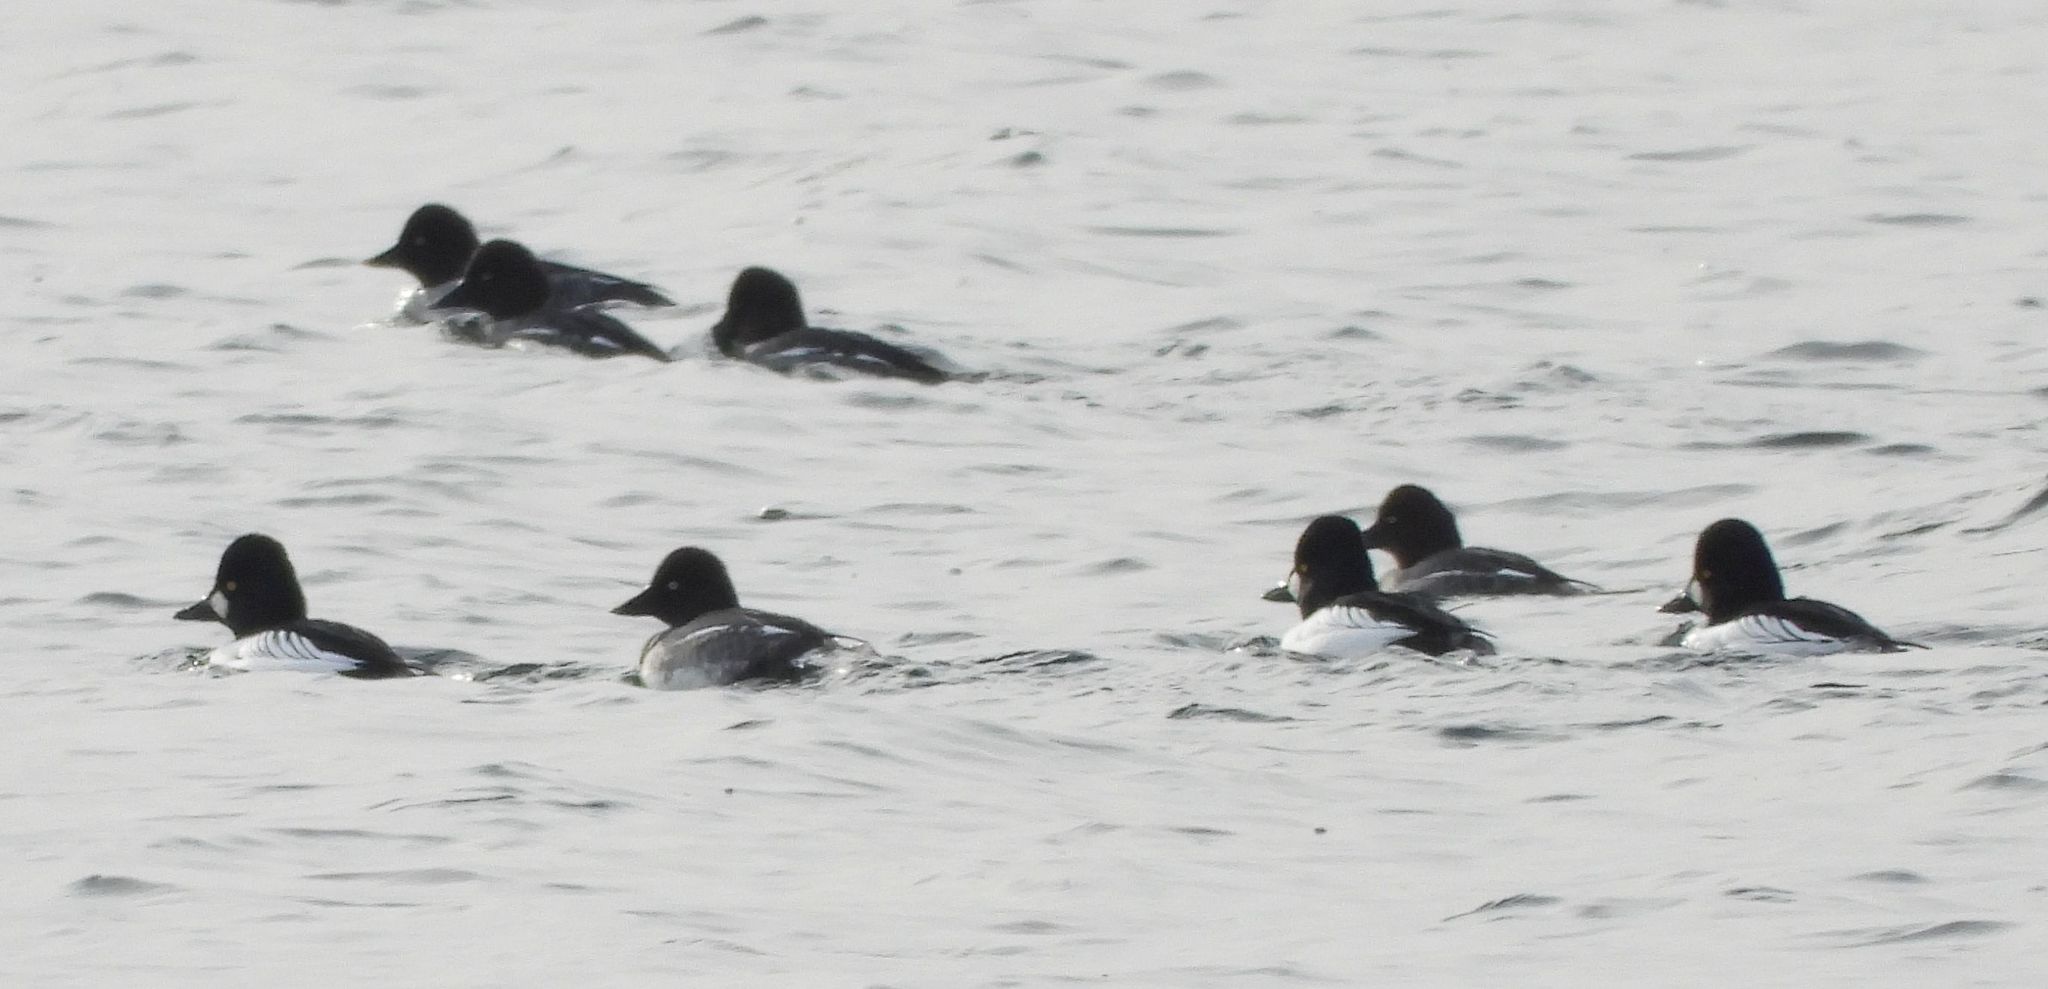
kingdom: Animalia
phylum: Chordata
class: Aves
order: Anseriformes
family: Anatidae
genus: Bucephala
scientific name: Bucephala clangula
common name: Common goldeneye
